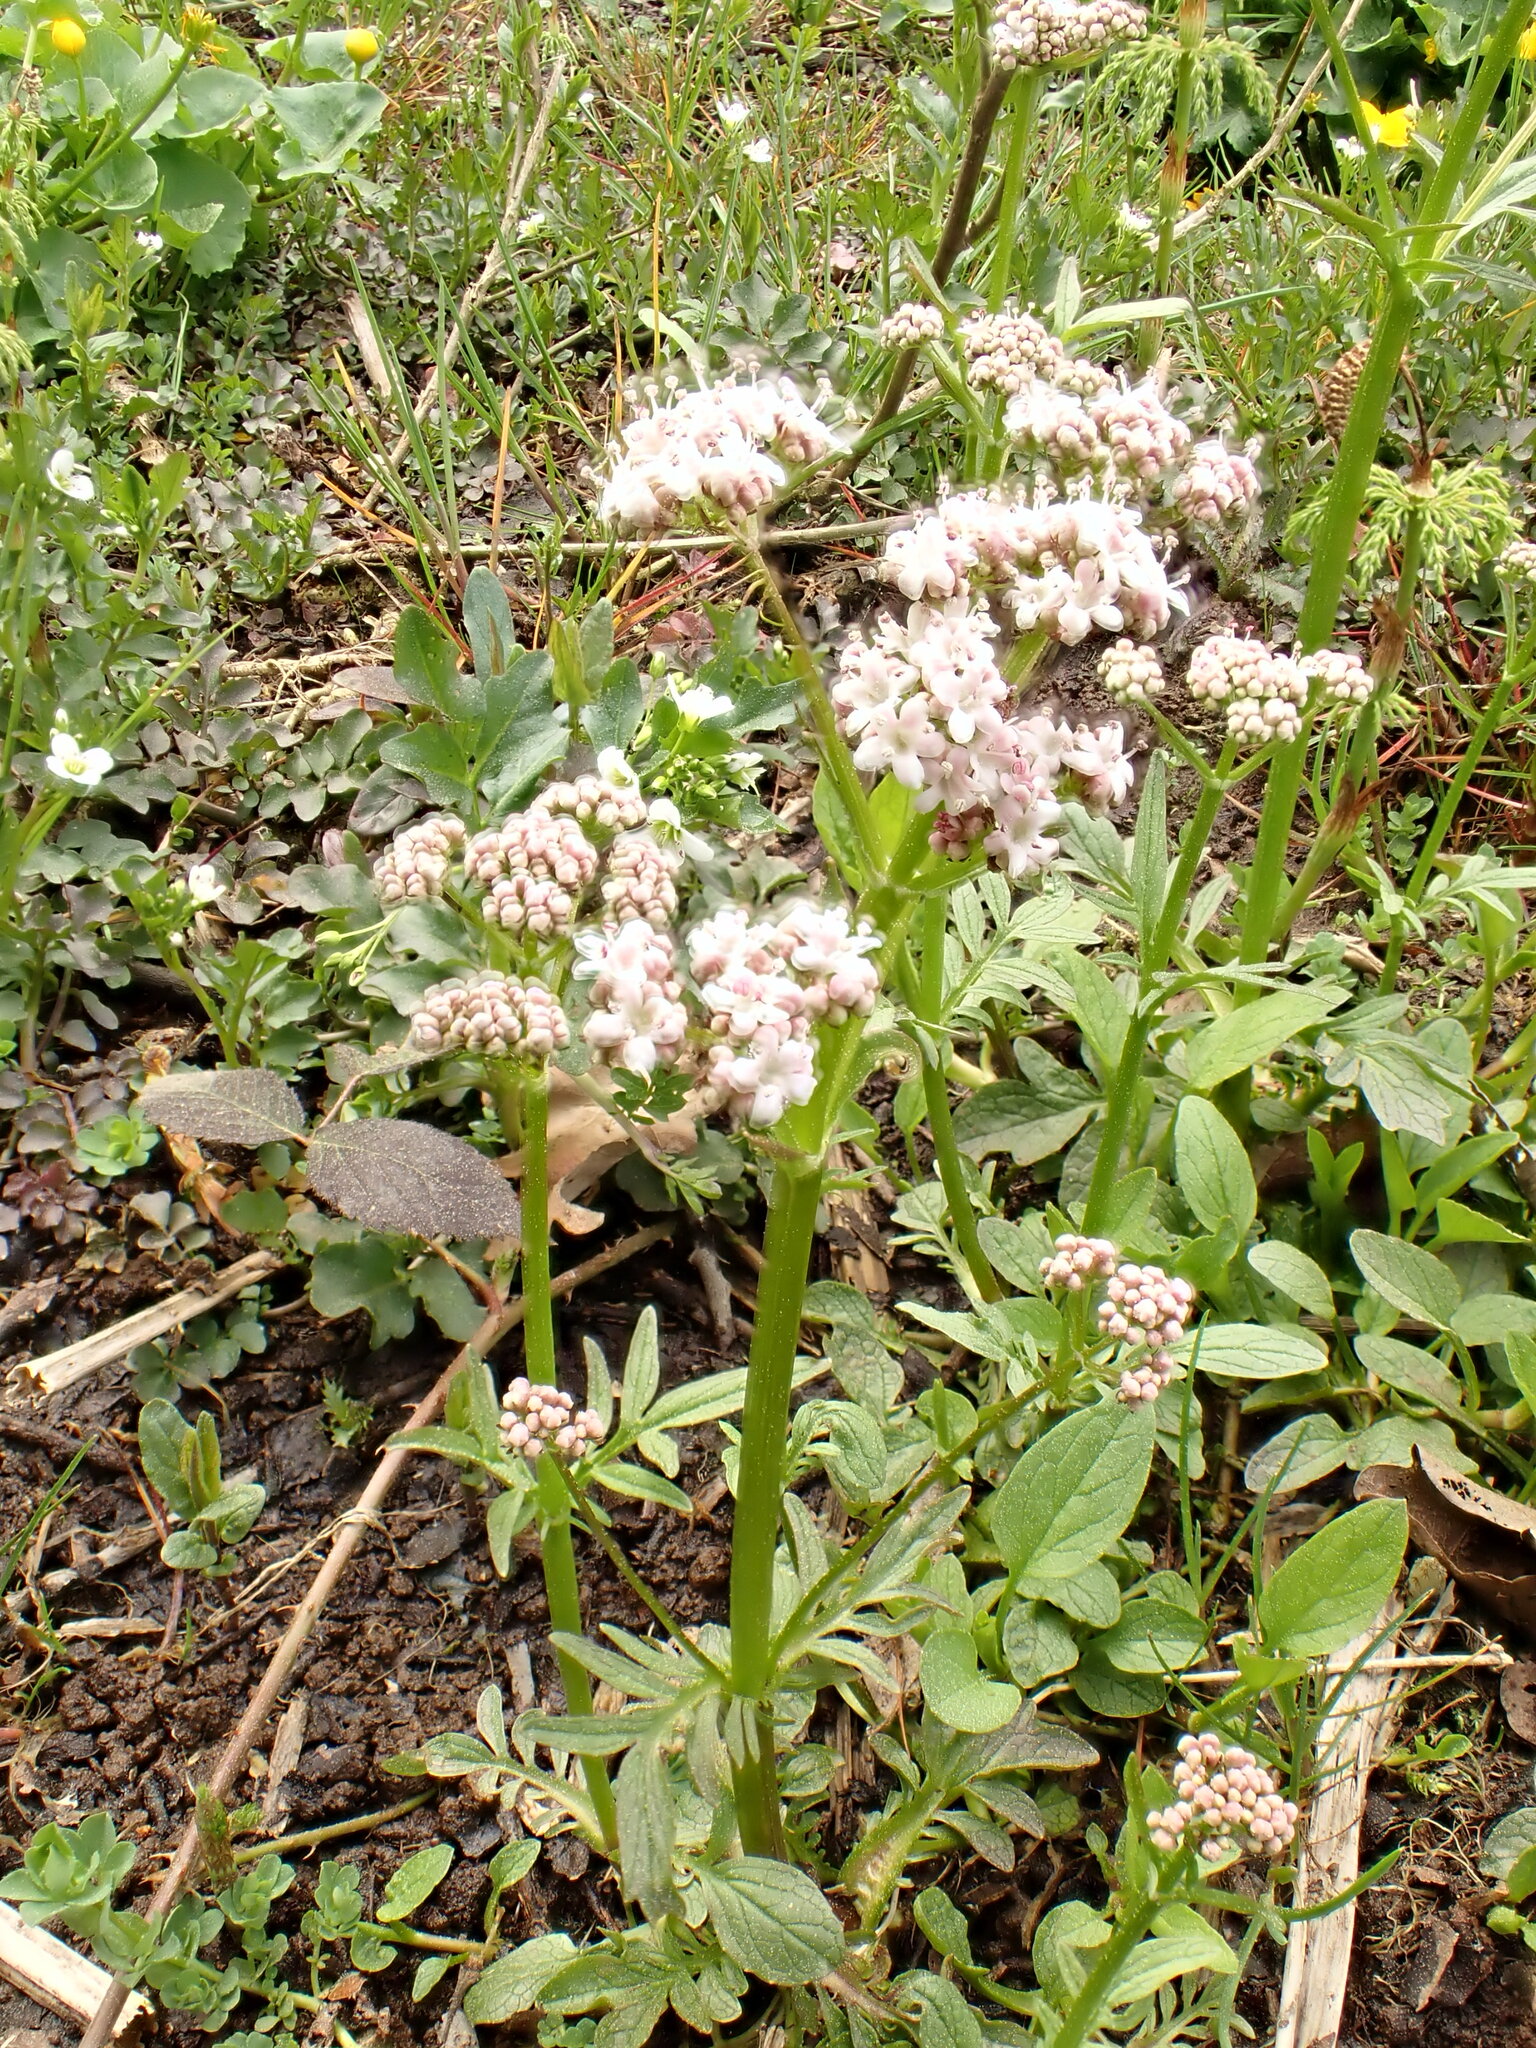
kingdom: Plantae
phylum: Tracheophyta
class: Magnoliopsida
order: Dipsacales
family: Caprifoliaceae
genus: Valeriana
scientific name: Valeriana dioica
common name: Marsh valerian
